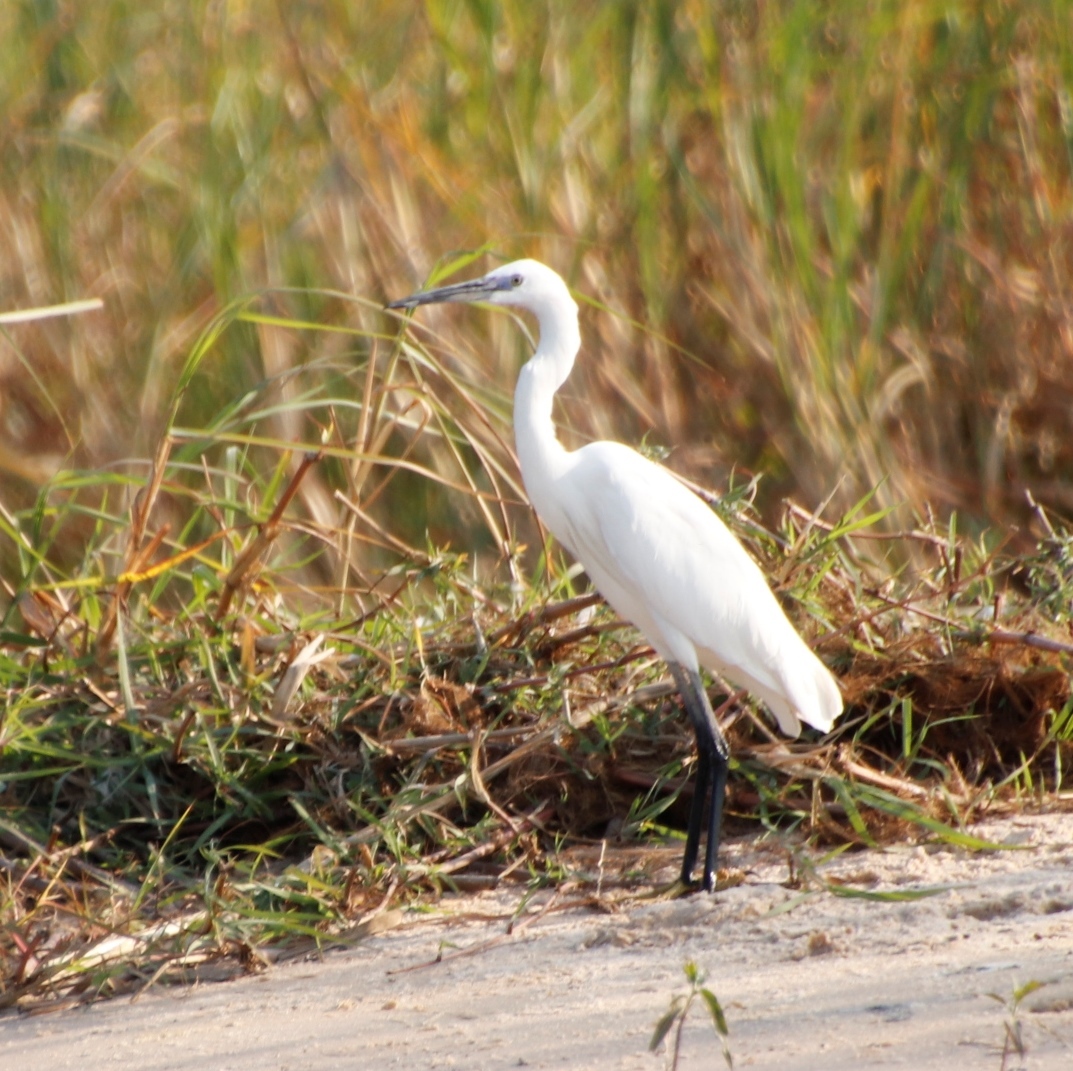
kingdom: Animalia
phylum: Chordata
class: Aves
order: Pelecaniformes
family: Ardeidae
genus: Egretta
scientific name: Egretta garzetta
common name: Little egret
